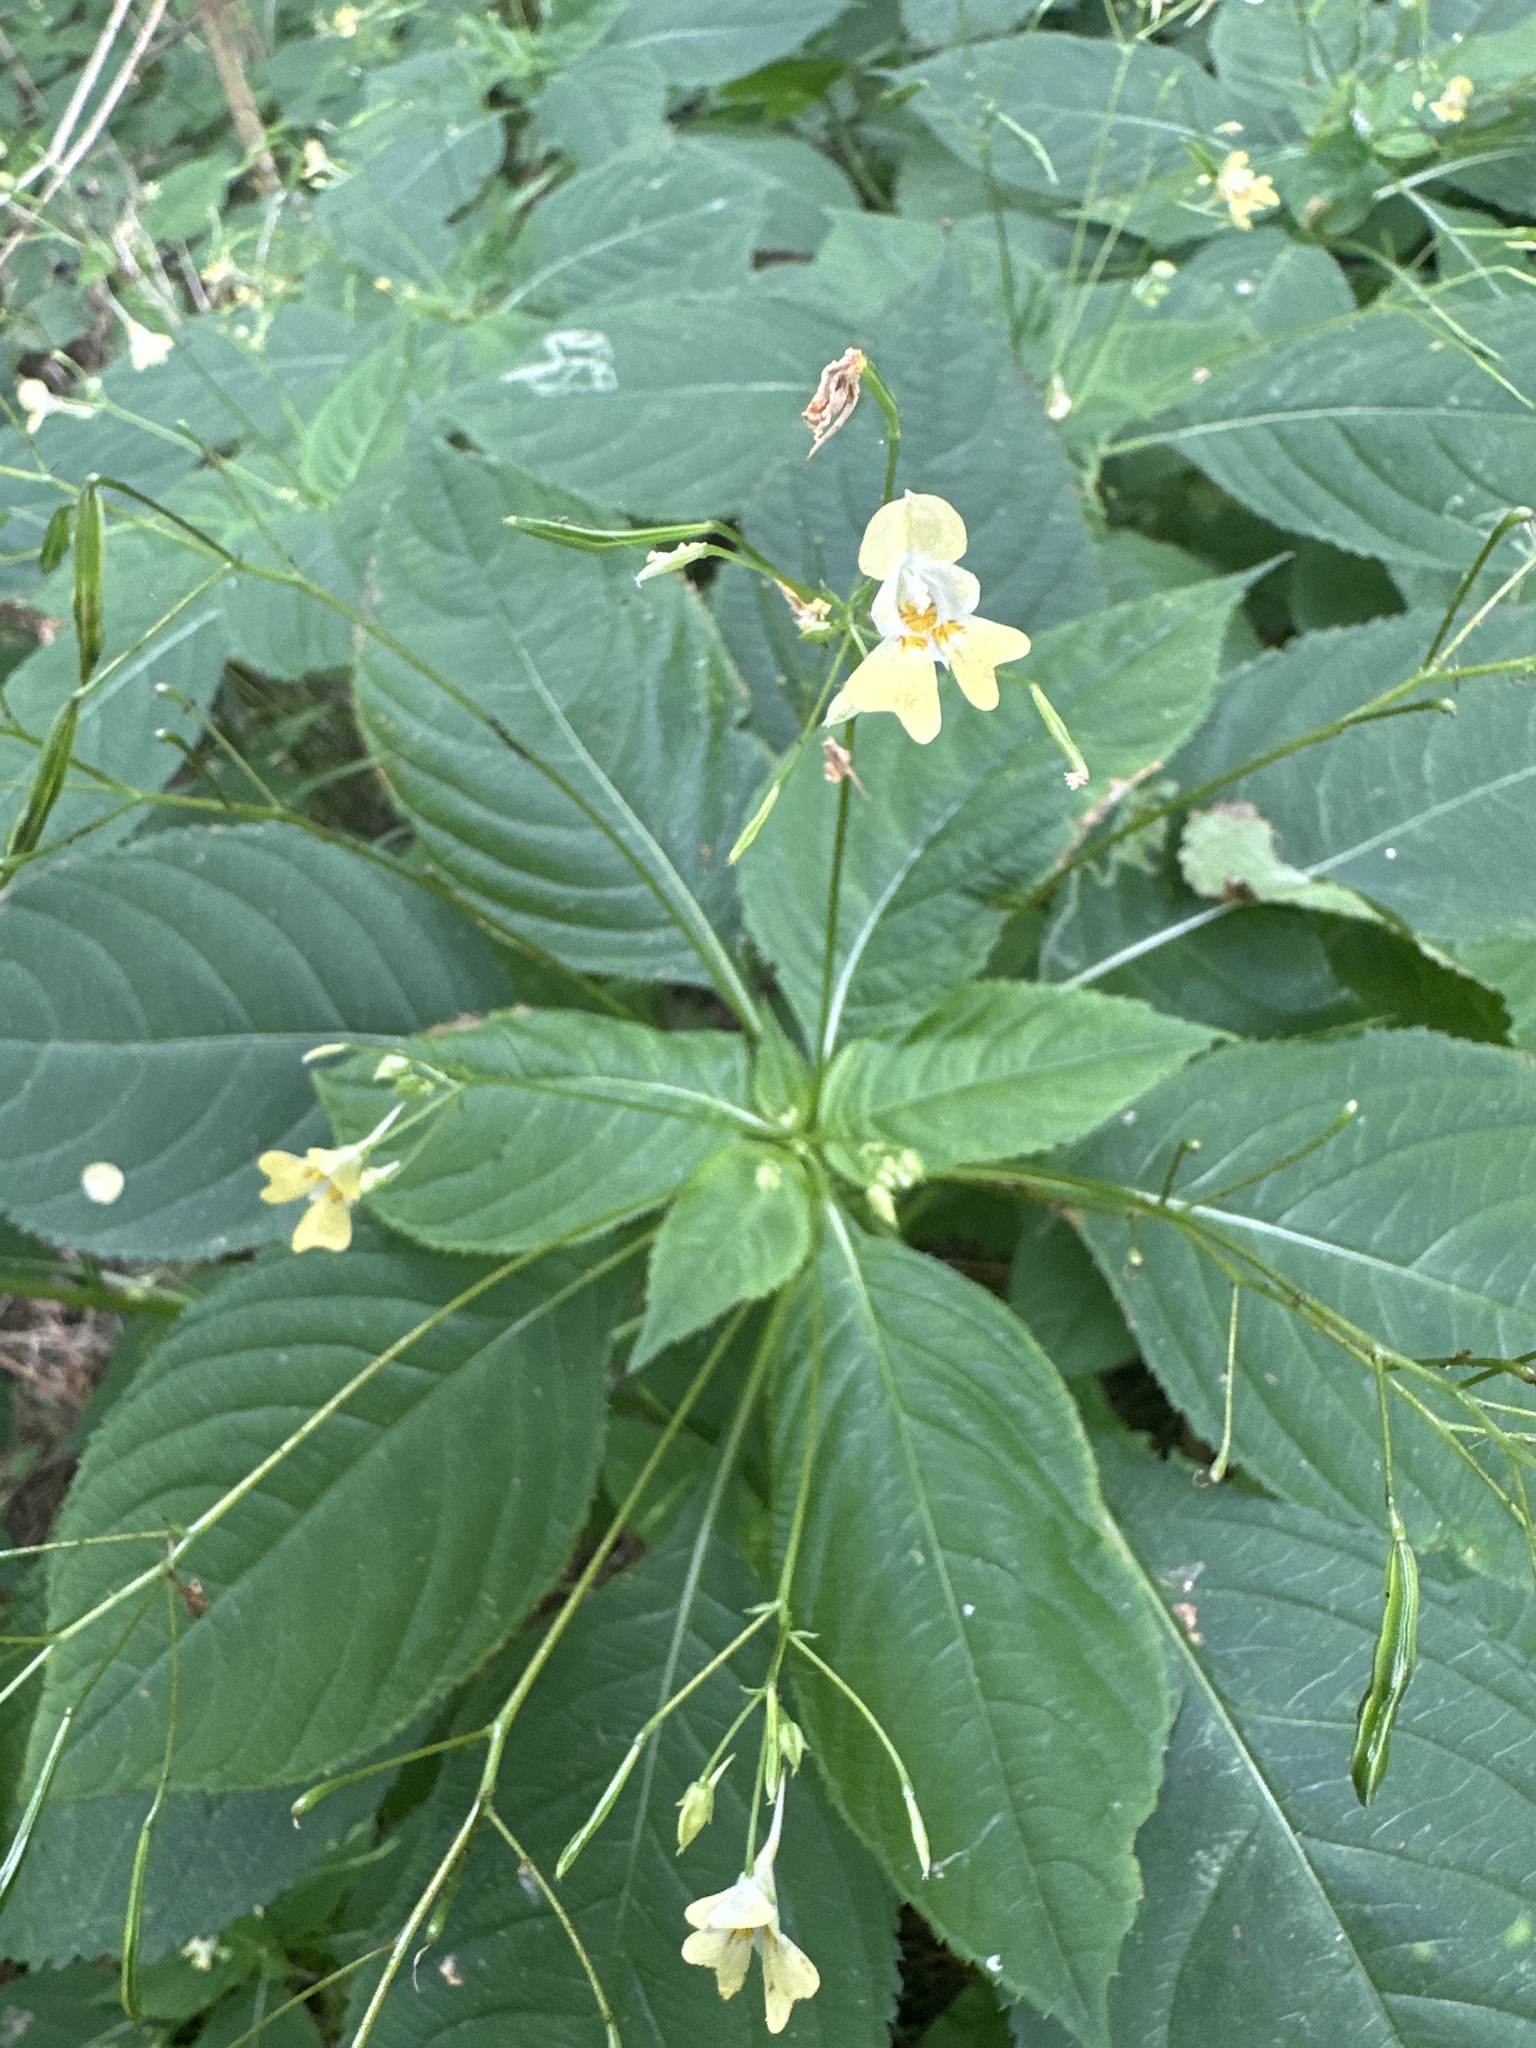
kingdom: Plantae
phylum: Tracheophyta
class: Magnoliopsida
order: Ericales
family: Balsaminaceae
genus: Impatiens
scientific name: Impatiens parviflora
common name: Small balsam
